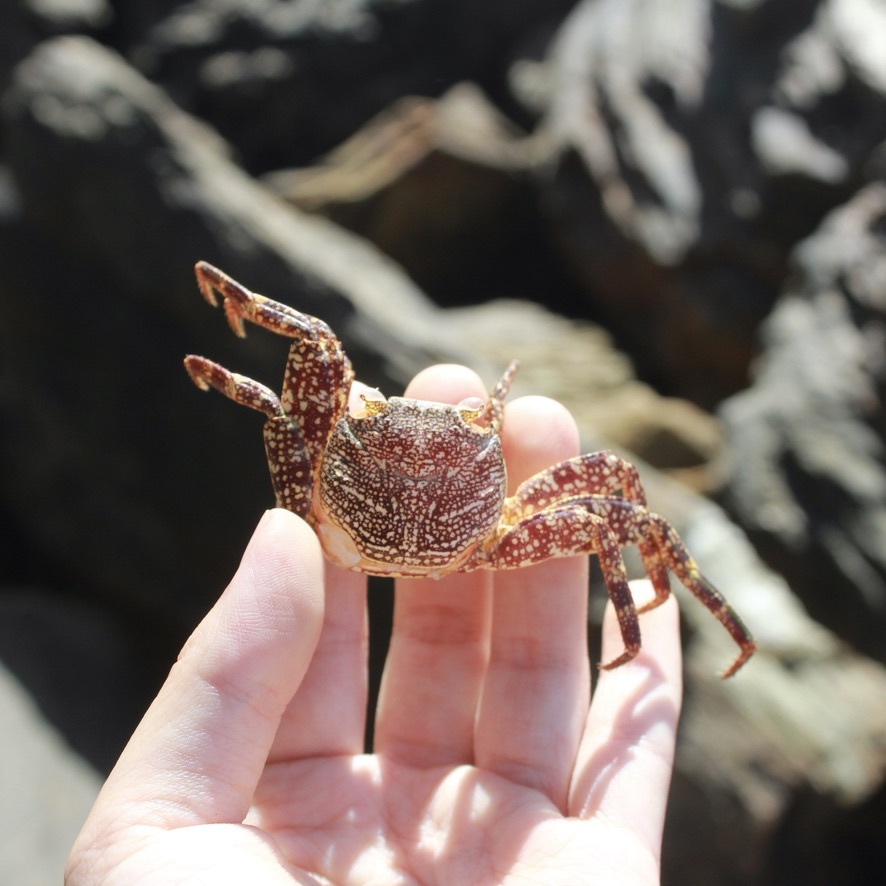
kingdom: Animalia
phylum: Arthropoda
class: Malacostraca
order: Decapoda
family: Grapsidae
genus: Grapsus
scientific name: Grapsus grapsus
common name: Sally lightfoot
